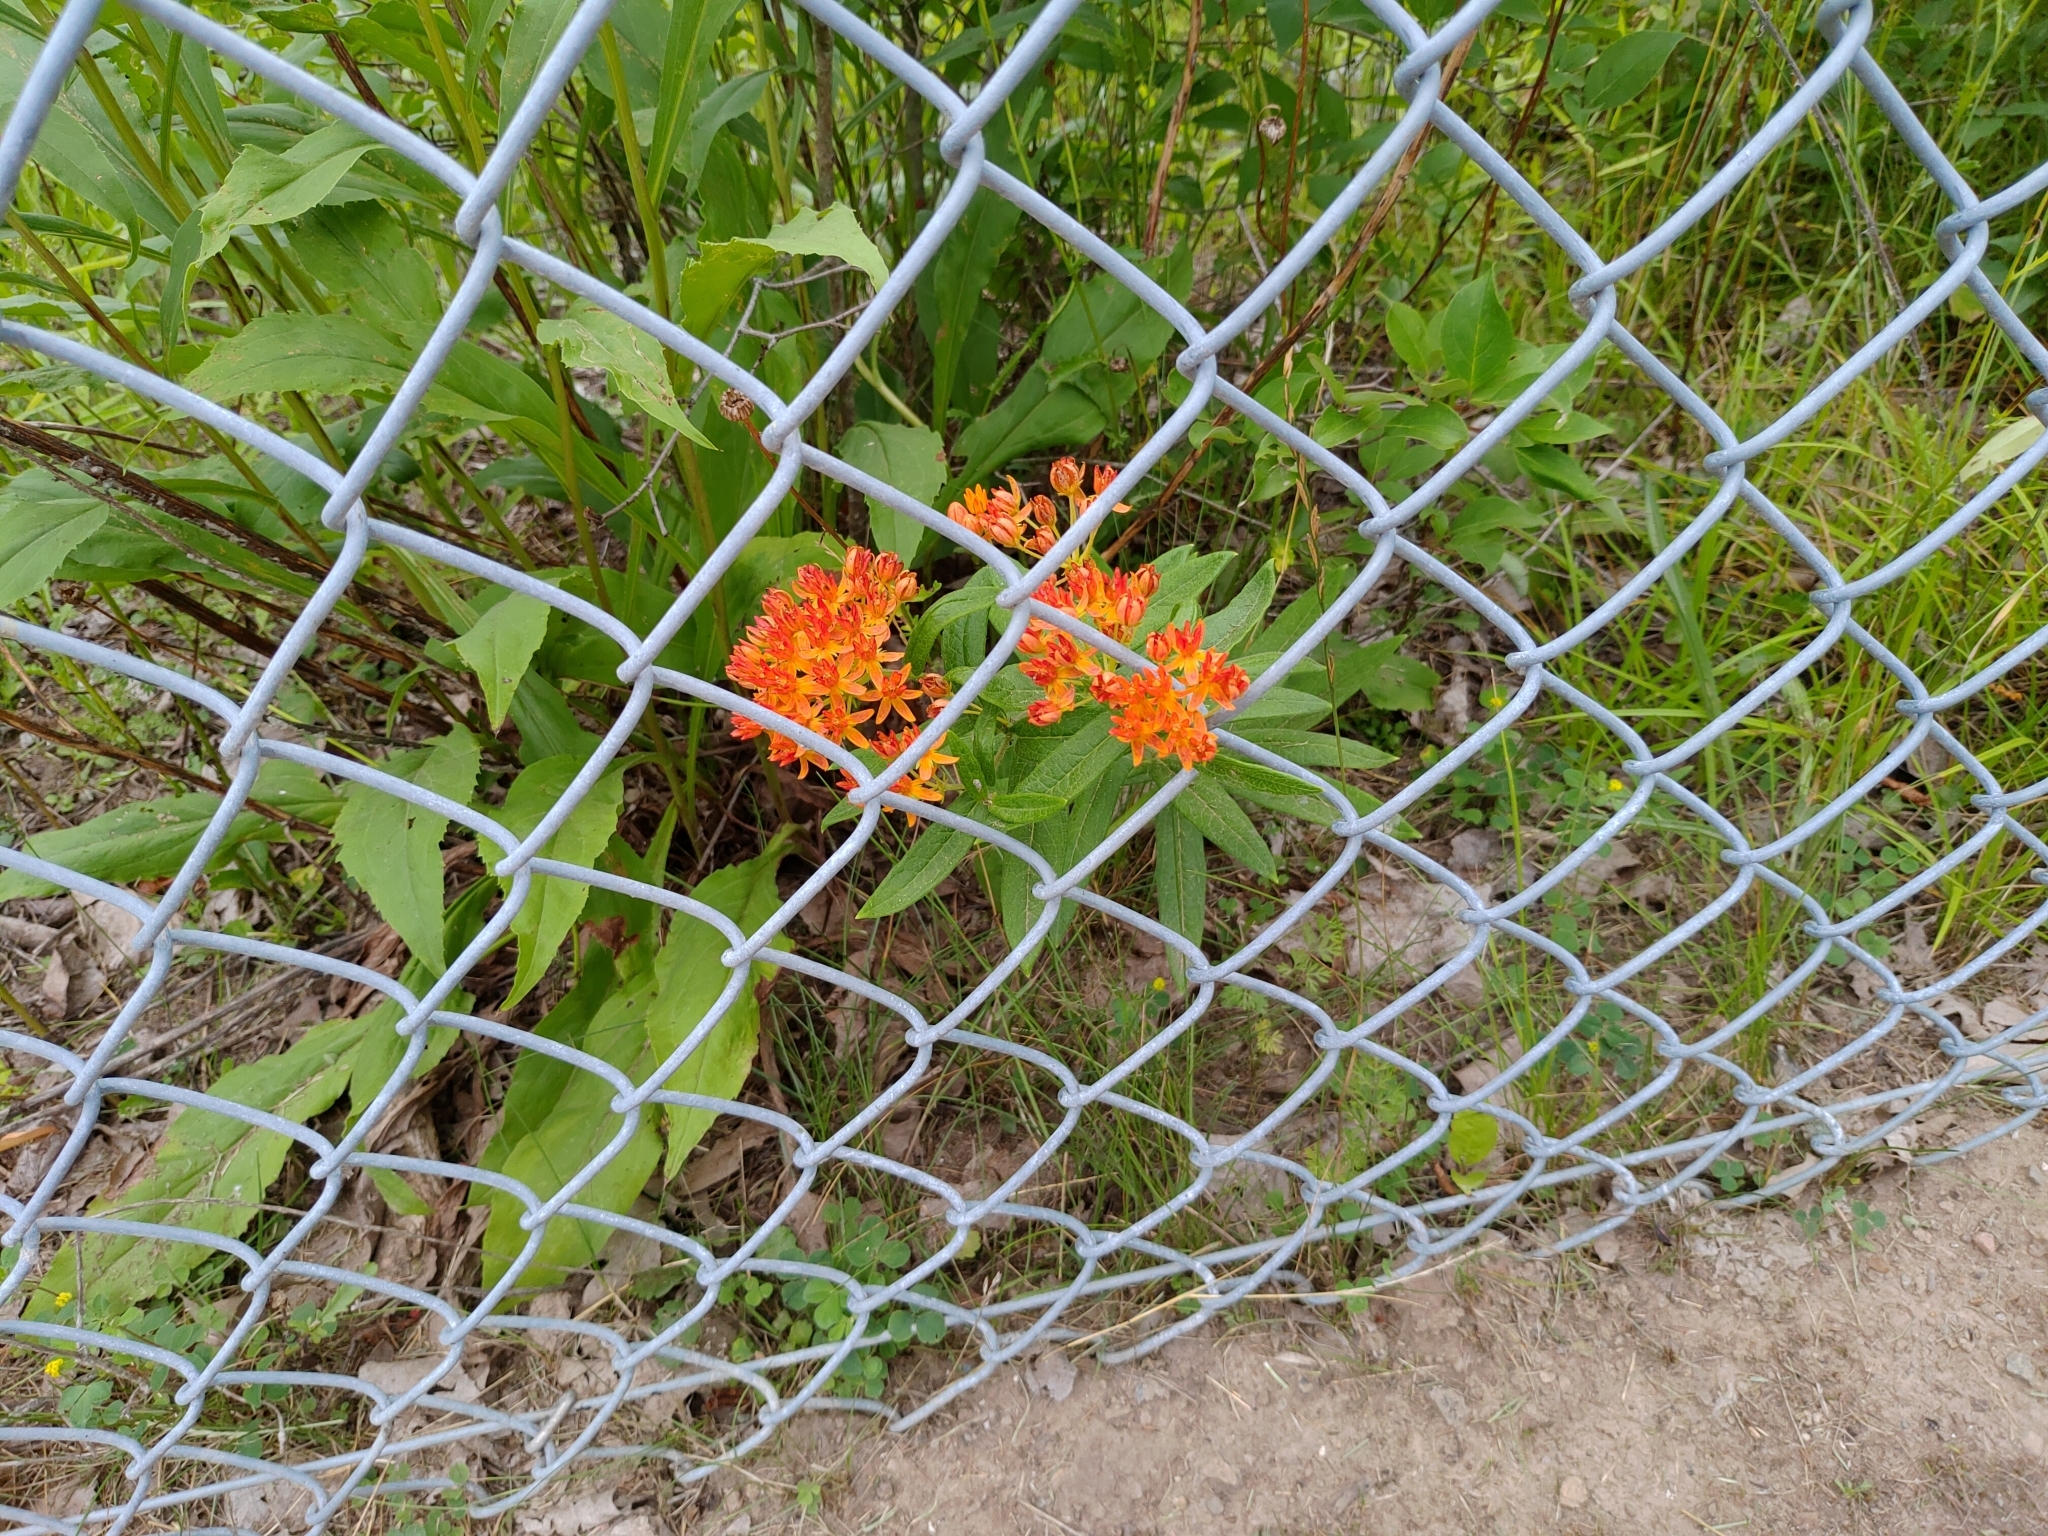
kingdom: Plantae
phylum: Tracheophyta
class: Magnoliopsida
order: Gentianales
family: Apocynaceae
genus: Asclepias
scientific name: Asclepias tuberosa
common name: Butterfly milkweed
